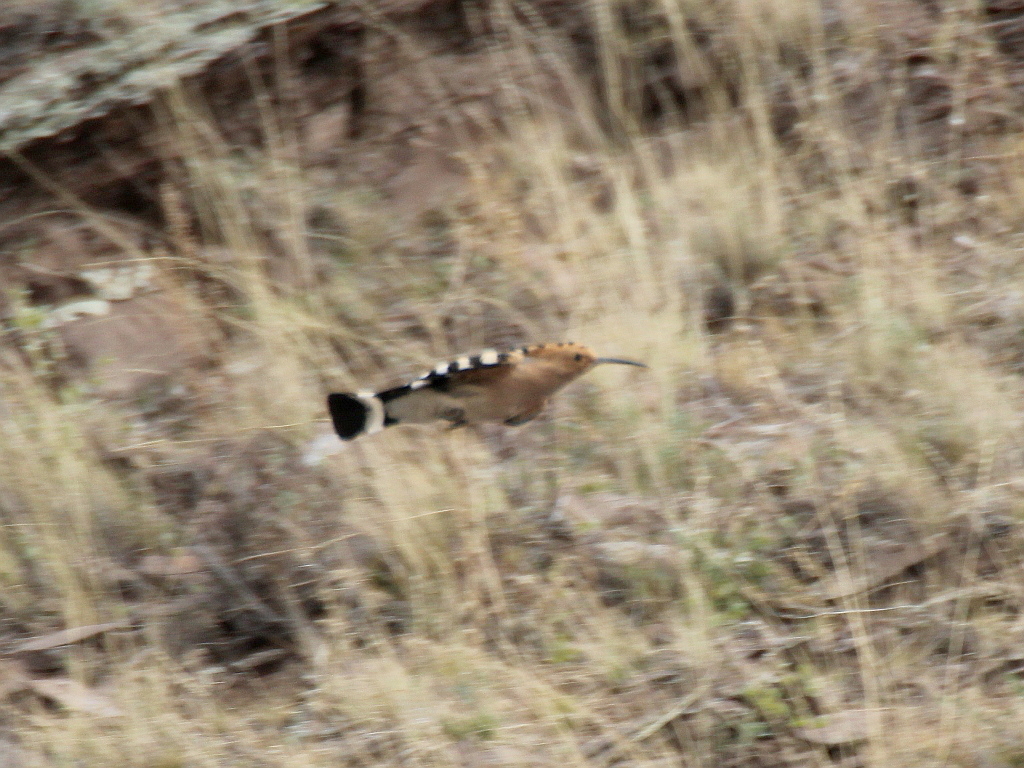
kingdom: Animalia
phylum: Chordata
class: Aves
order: Bucerotiformes
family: Upupidae
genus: Upupa
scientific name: Upupa epops
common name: Eurasian hoopoe
